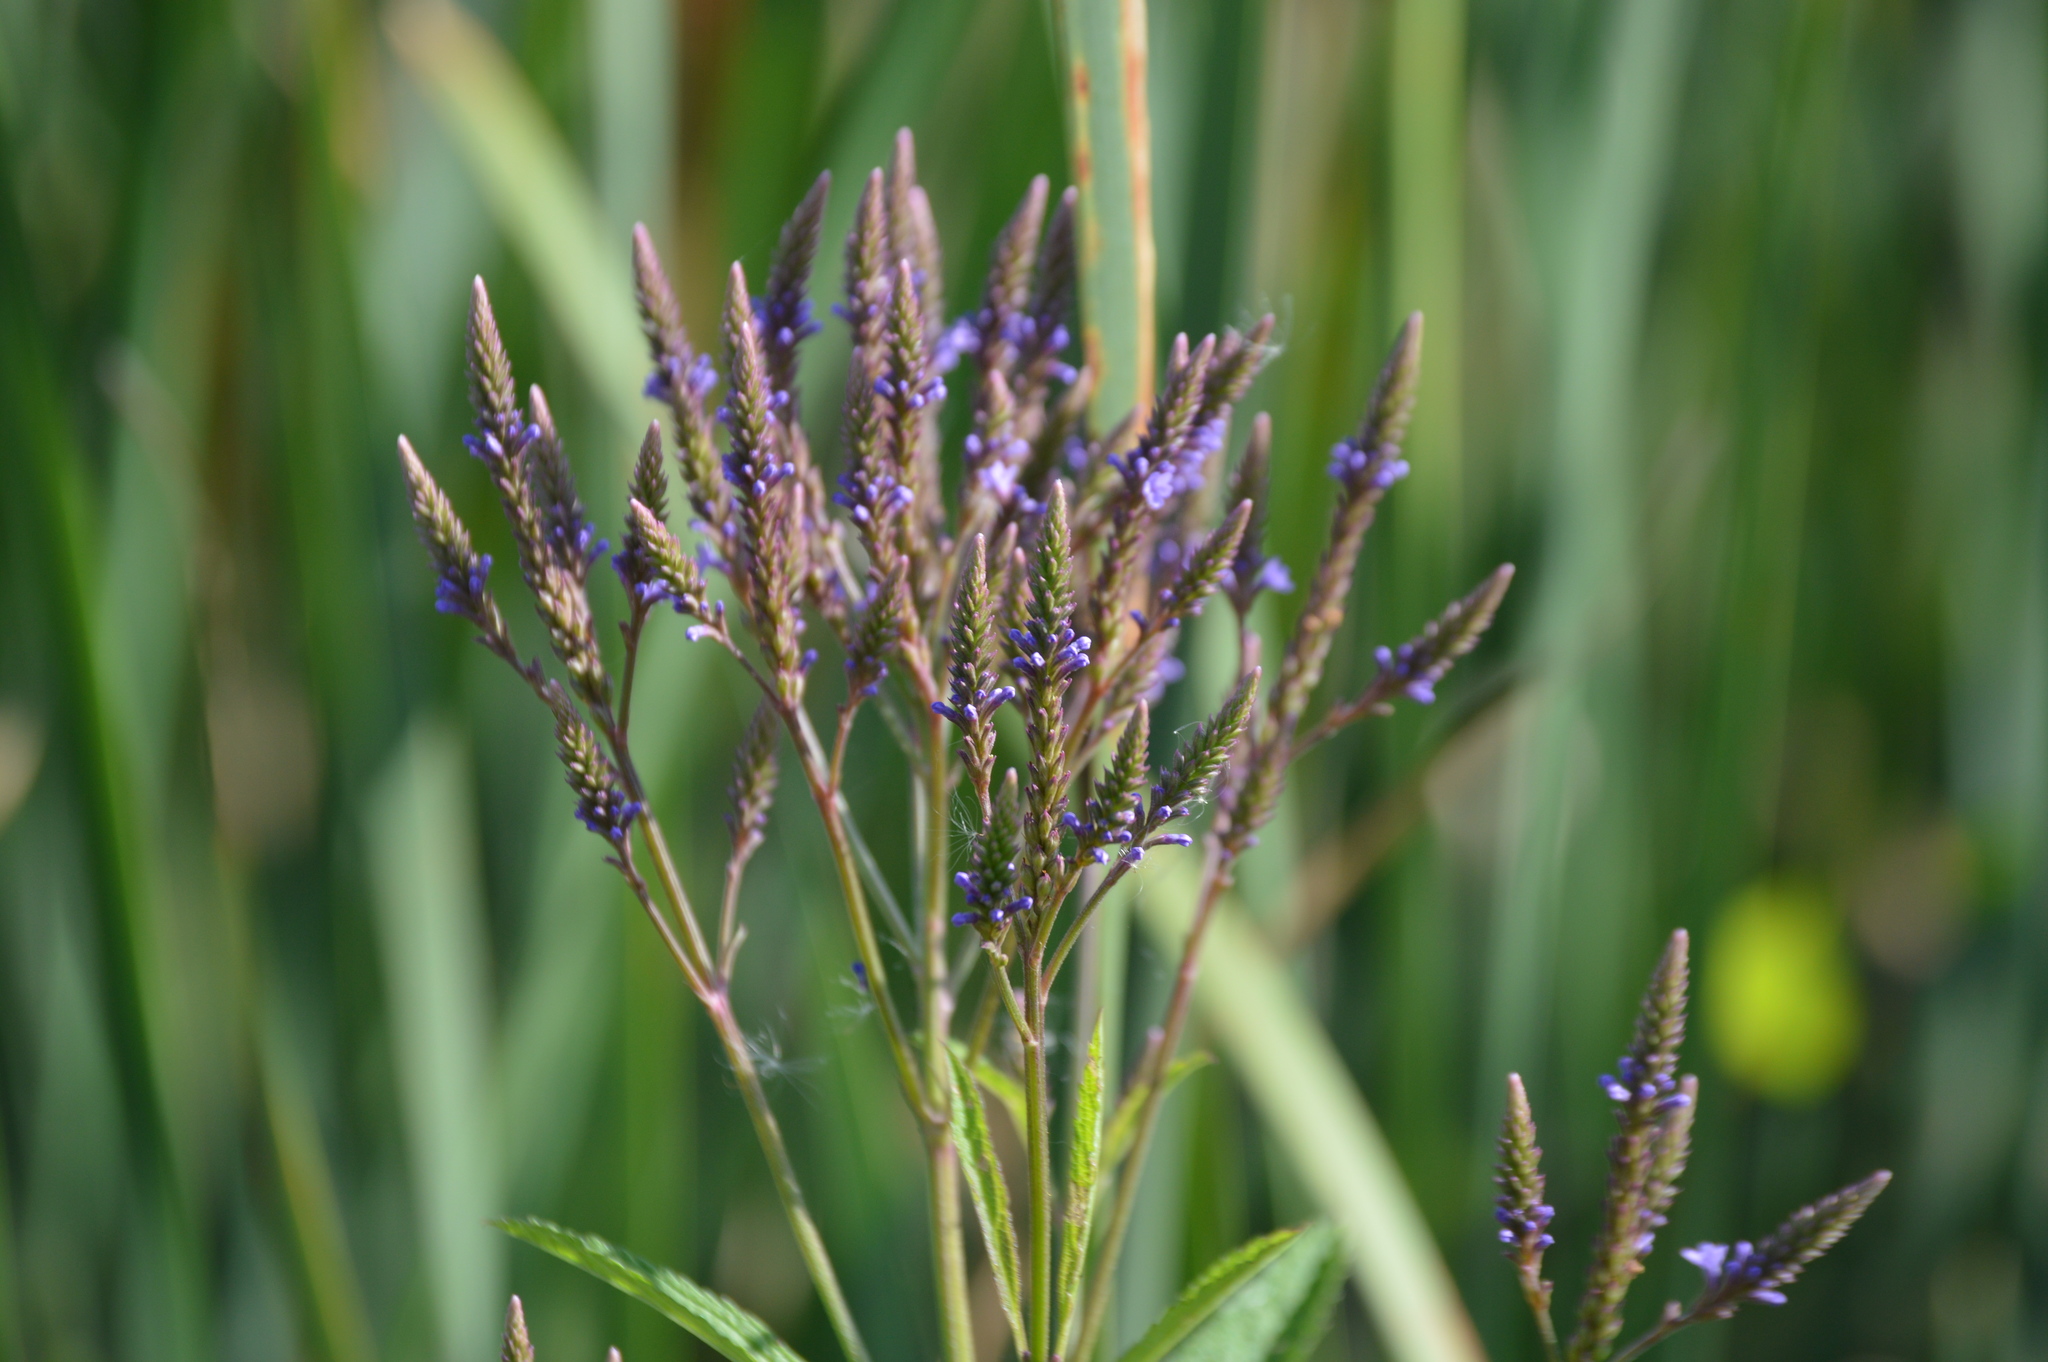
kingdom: Plantae
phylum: Tracheophyta
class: Magnoliopsida
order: Lamiales
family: Verbenaceae
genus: Verbena
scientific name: Verbena hastata
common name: American blue vervain
